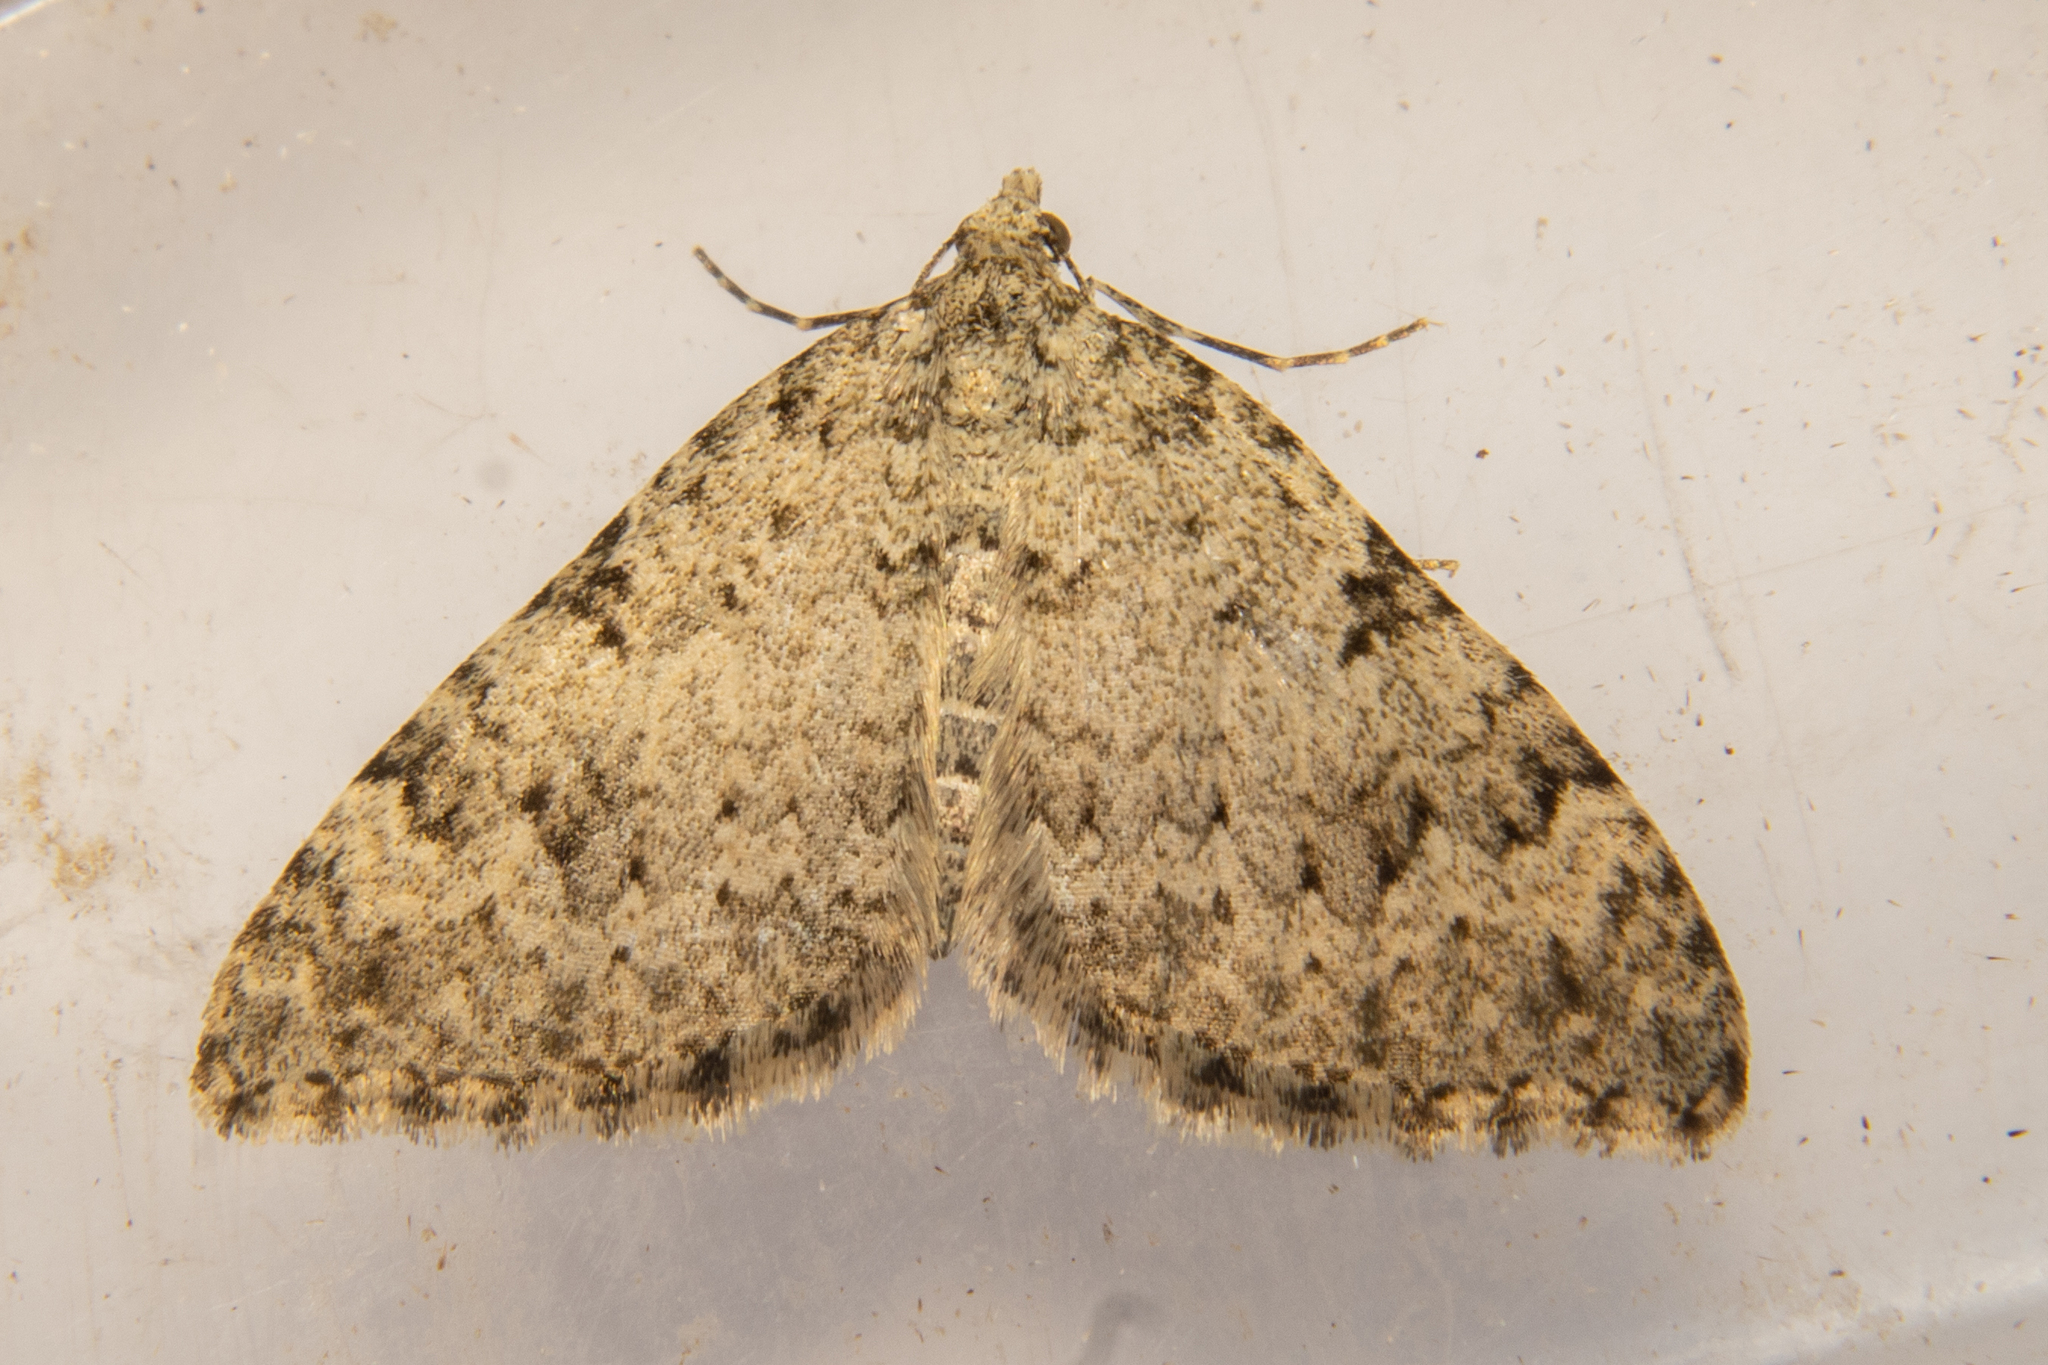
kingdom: Animalia
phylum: Arthropoda
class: Insecta
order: Lepidoptera
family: Geometridae
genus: Helastia
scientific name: Helastia cinerearia
